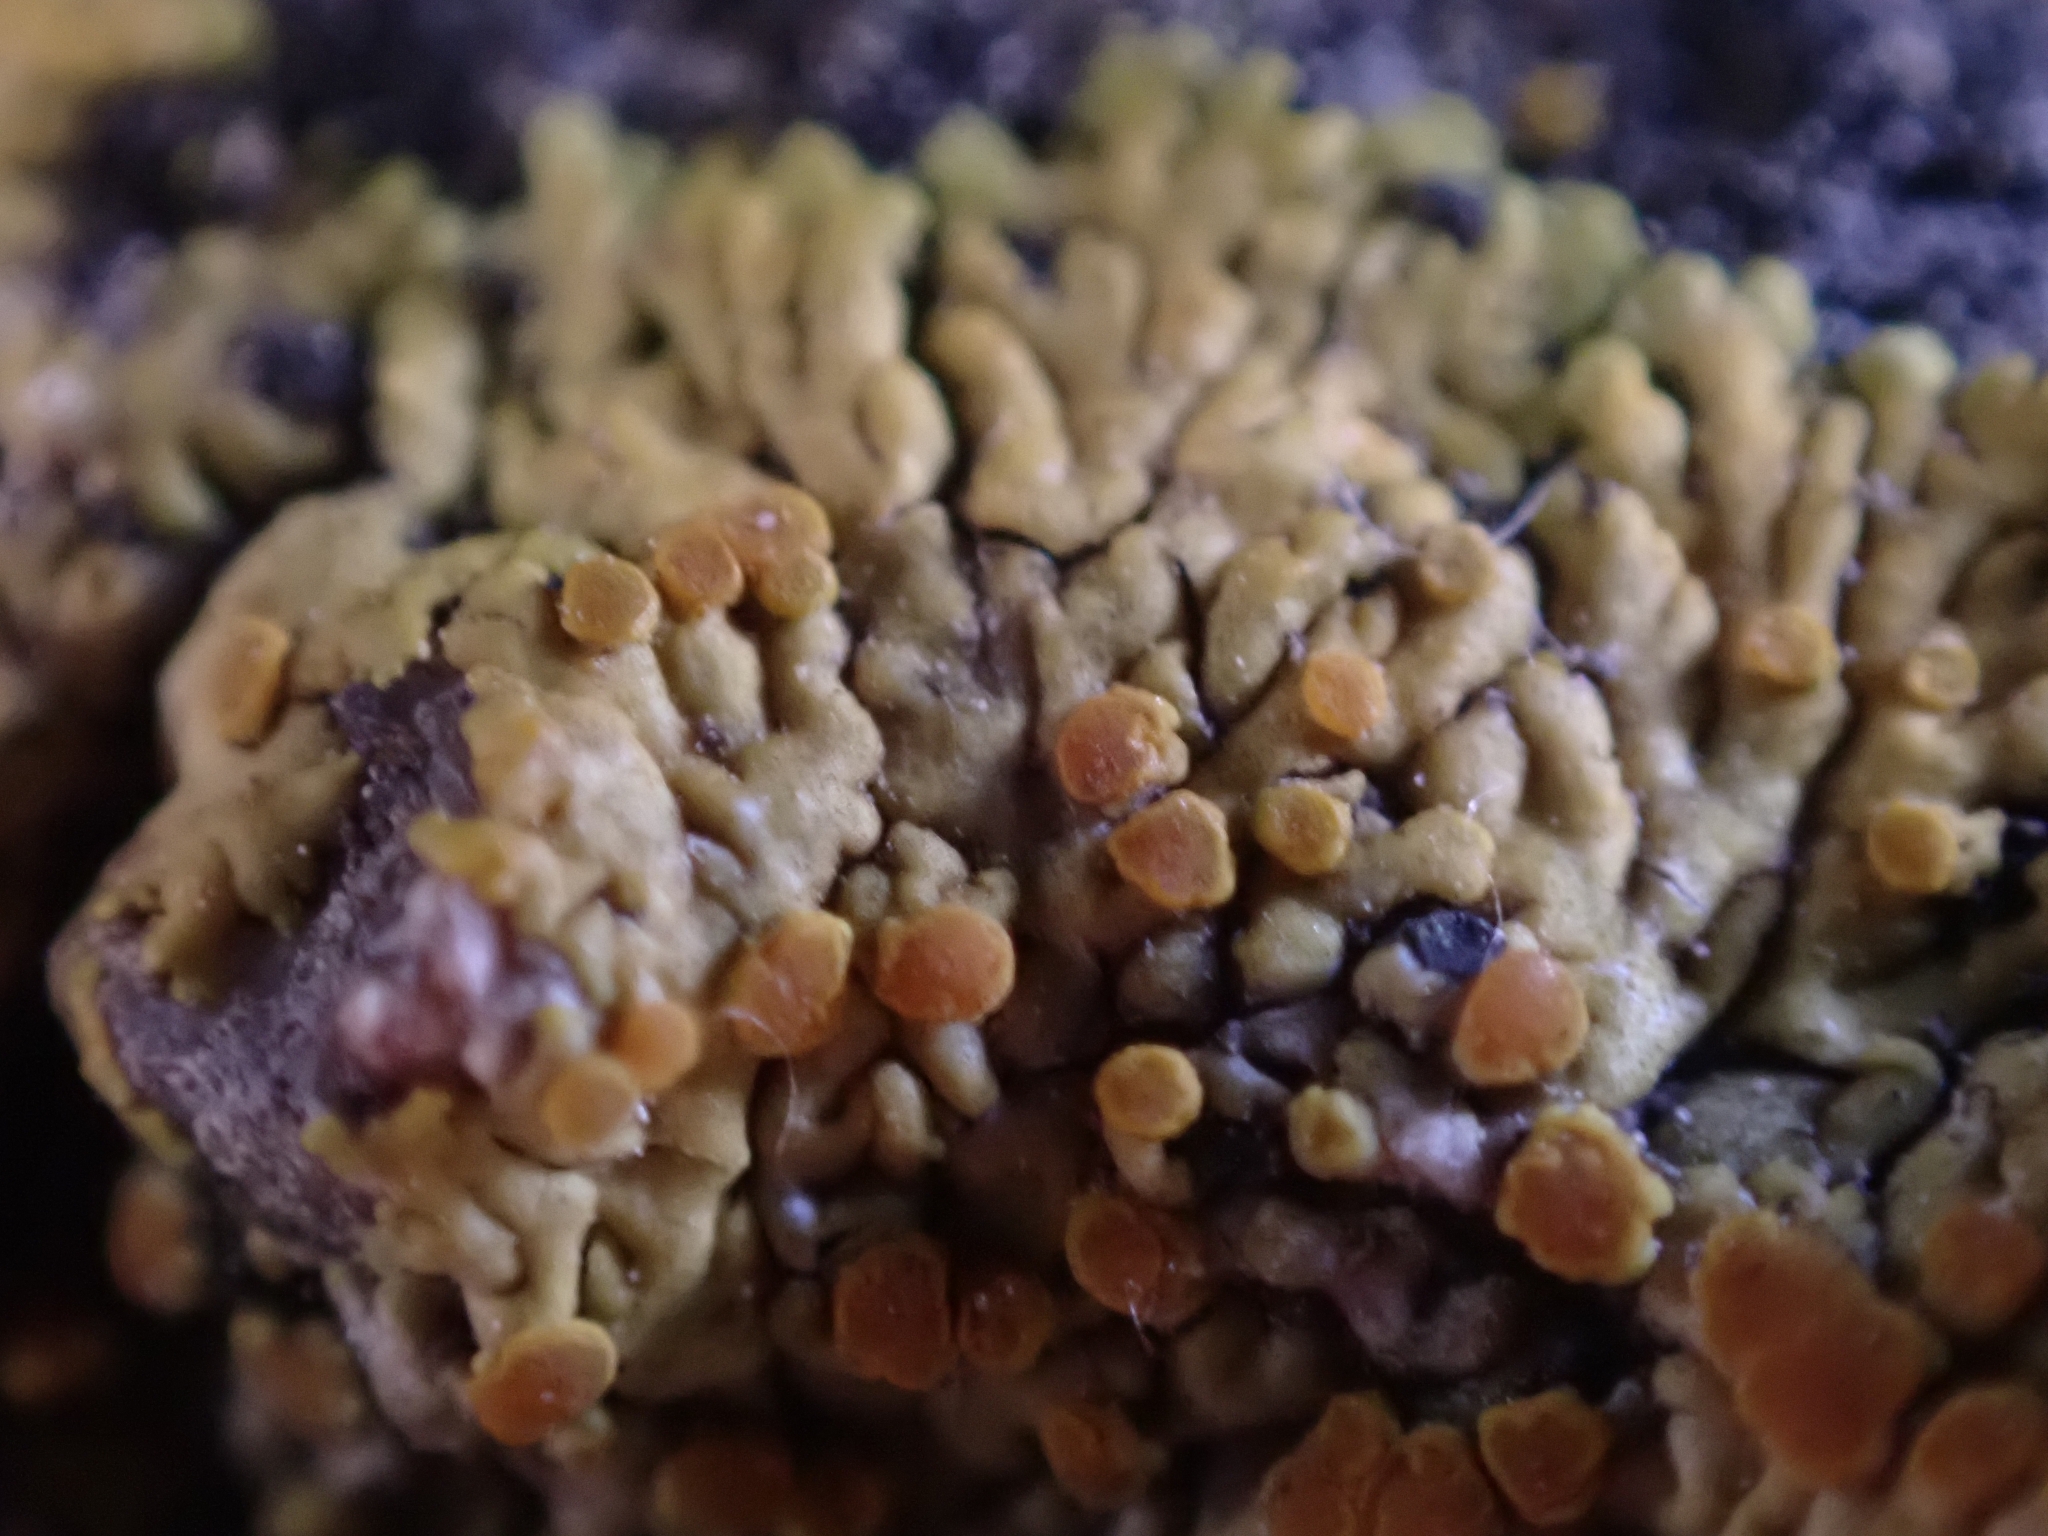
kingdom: Fungi
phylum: Ascomycota
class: Lecanoromycetes
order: Teloschistales
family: Teloschistaceae
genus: Variospora
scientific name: Variospora flavescens
